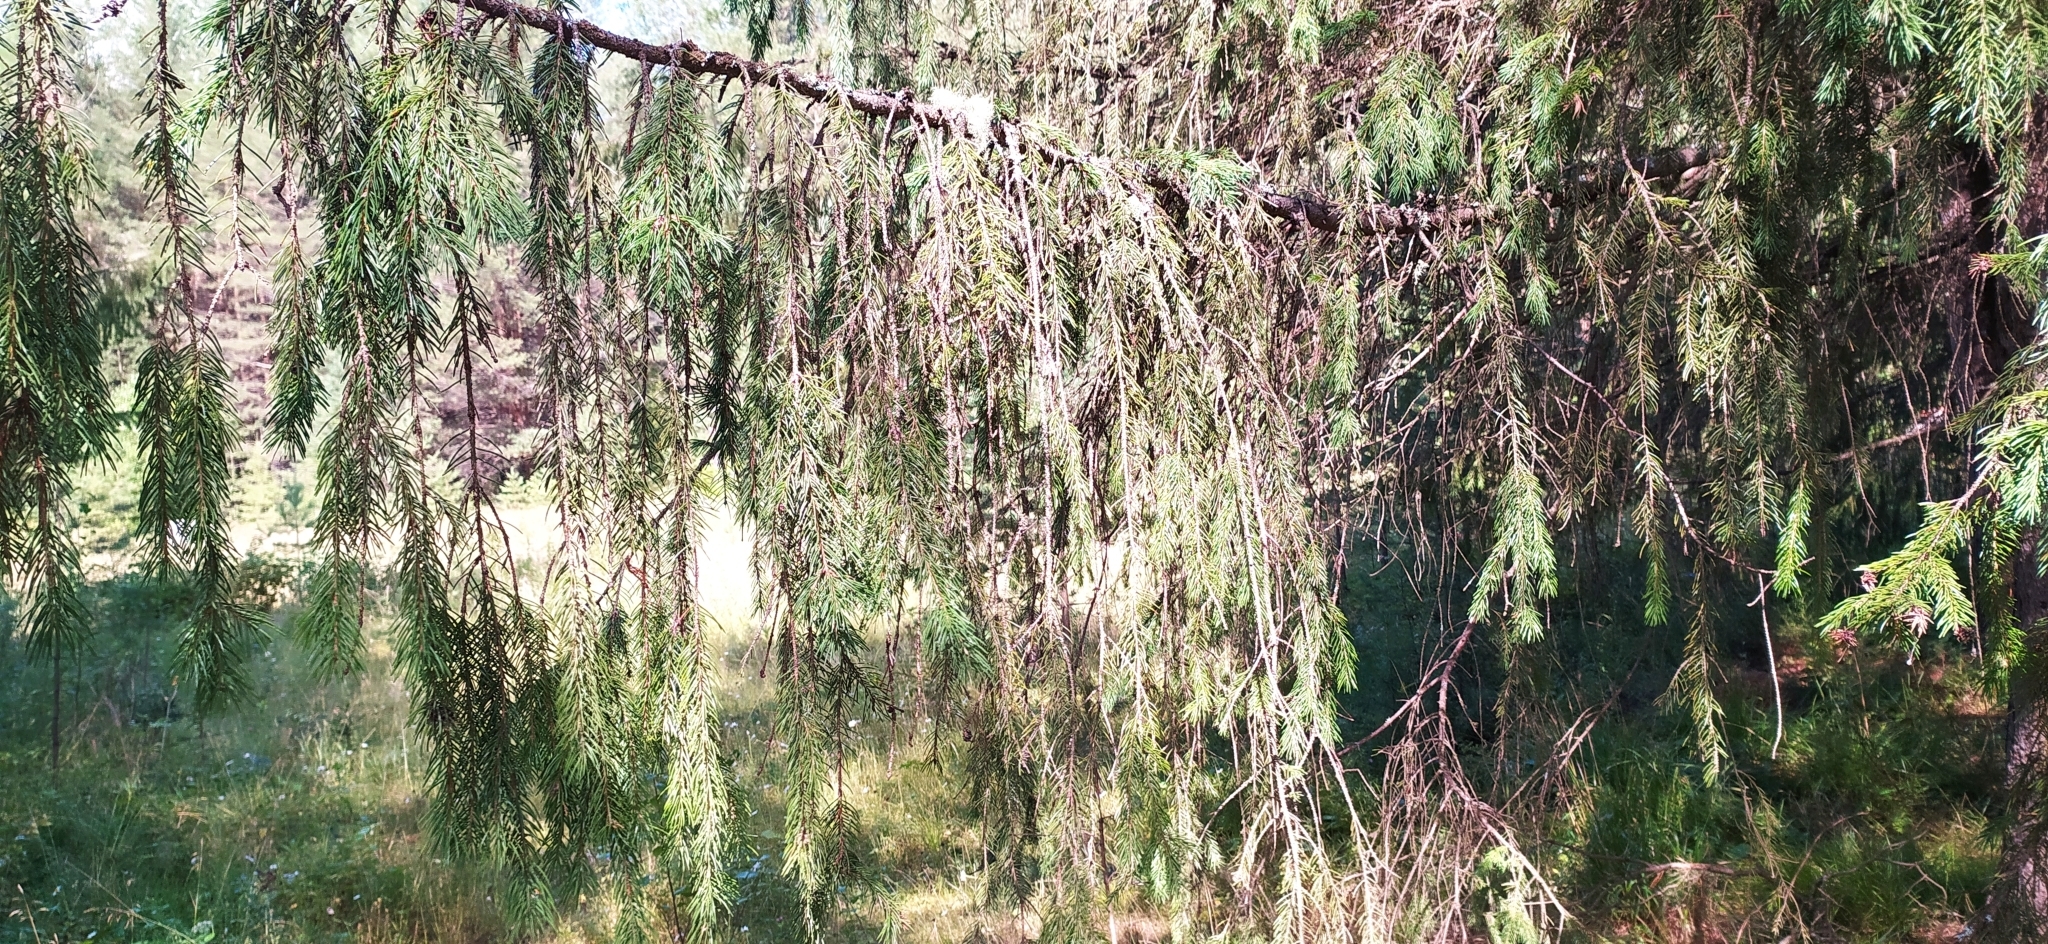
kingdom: Plantae
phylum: Tracheophyta
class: Pinopsida
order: Pinales
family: Pinaceae
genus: Picea
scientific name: Picea obovata
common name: Siberian spruce
